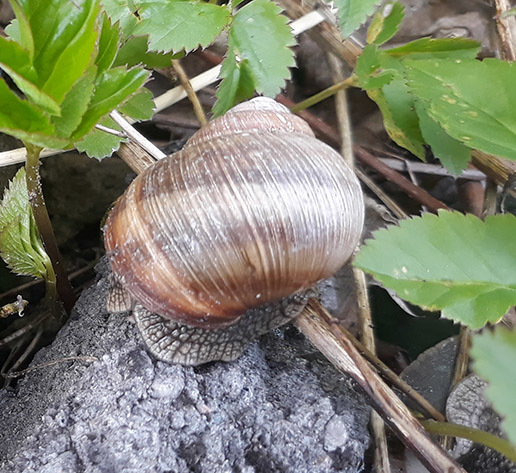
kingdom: Animalia
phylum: Mollusca
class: Gastropoda
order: Stylommatophora
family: Helicidae
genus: Helix
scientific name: Helix pomatia
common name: Roman snail
